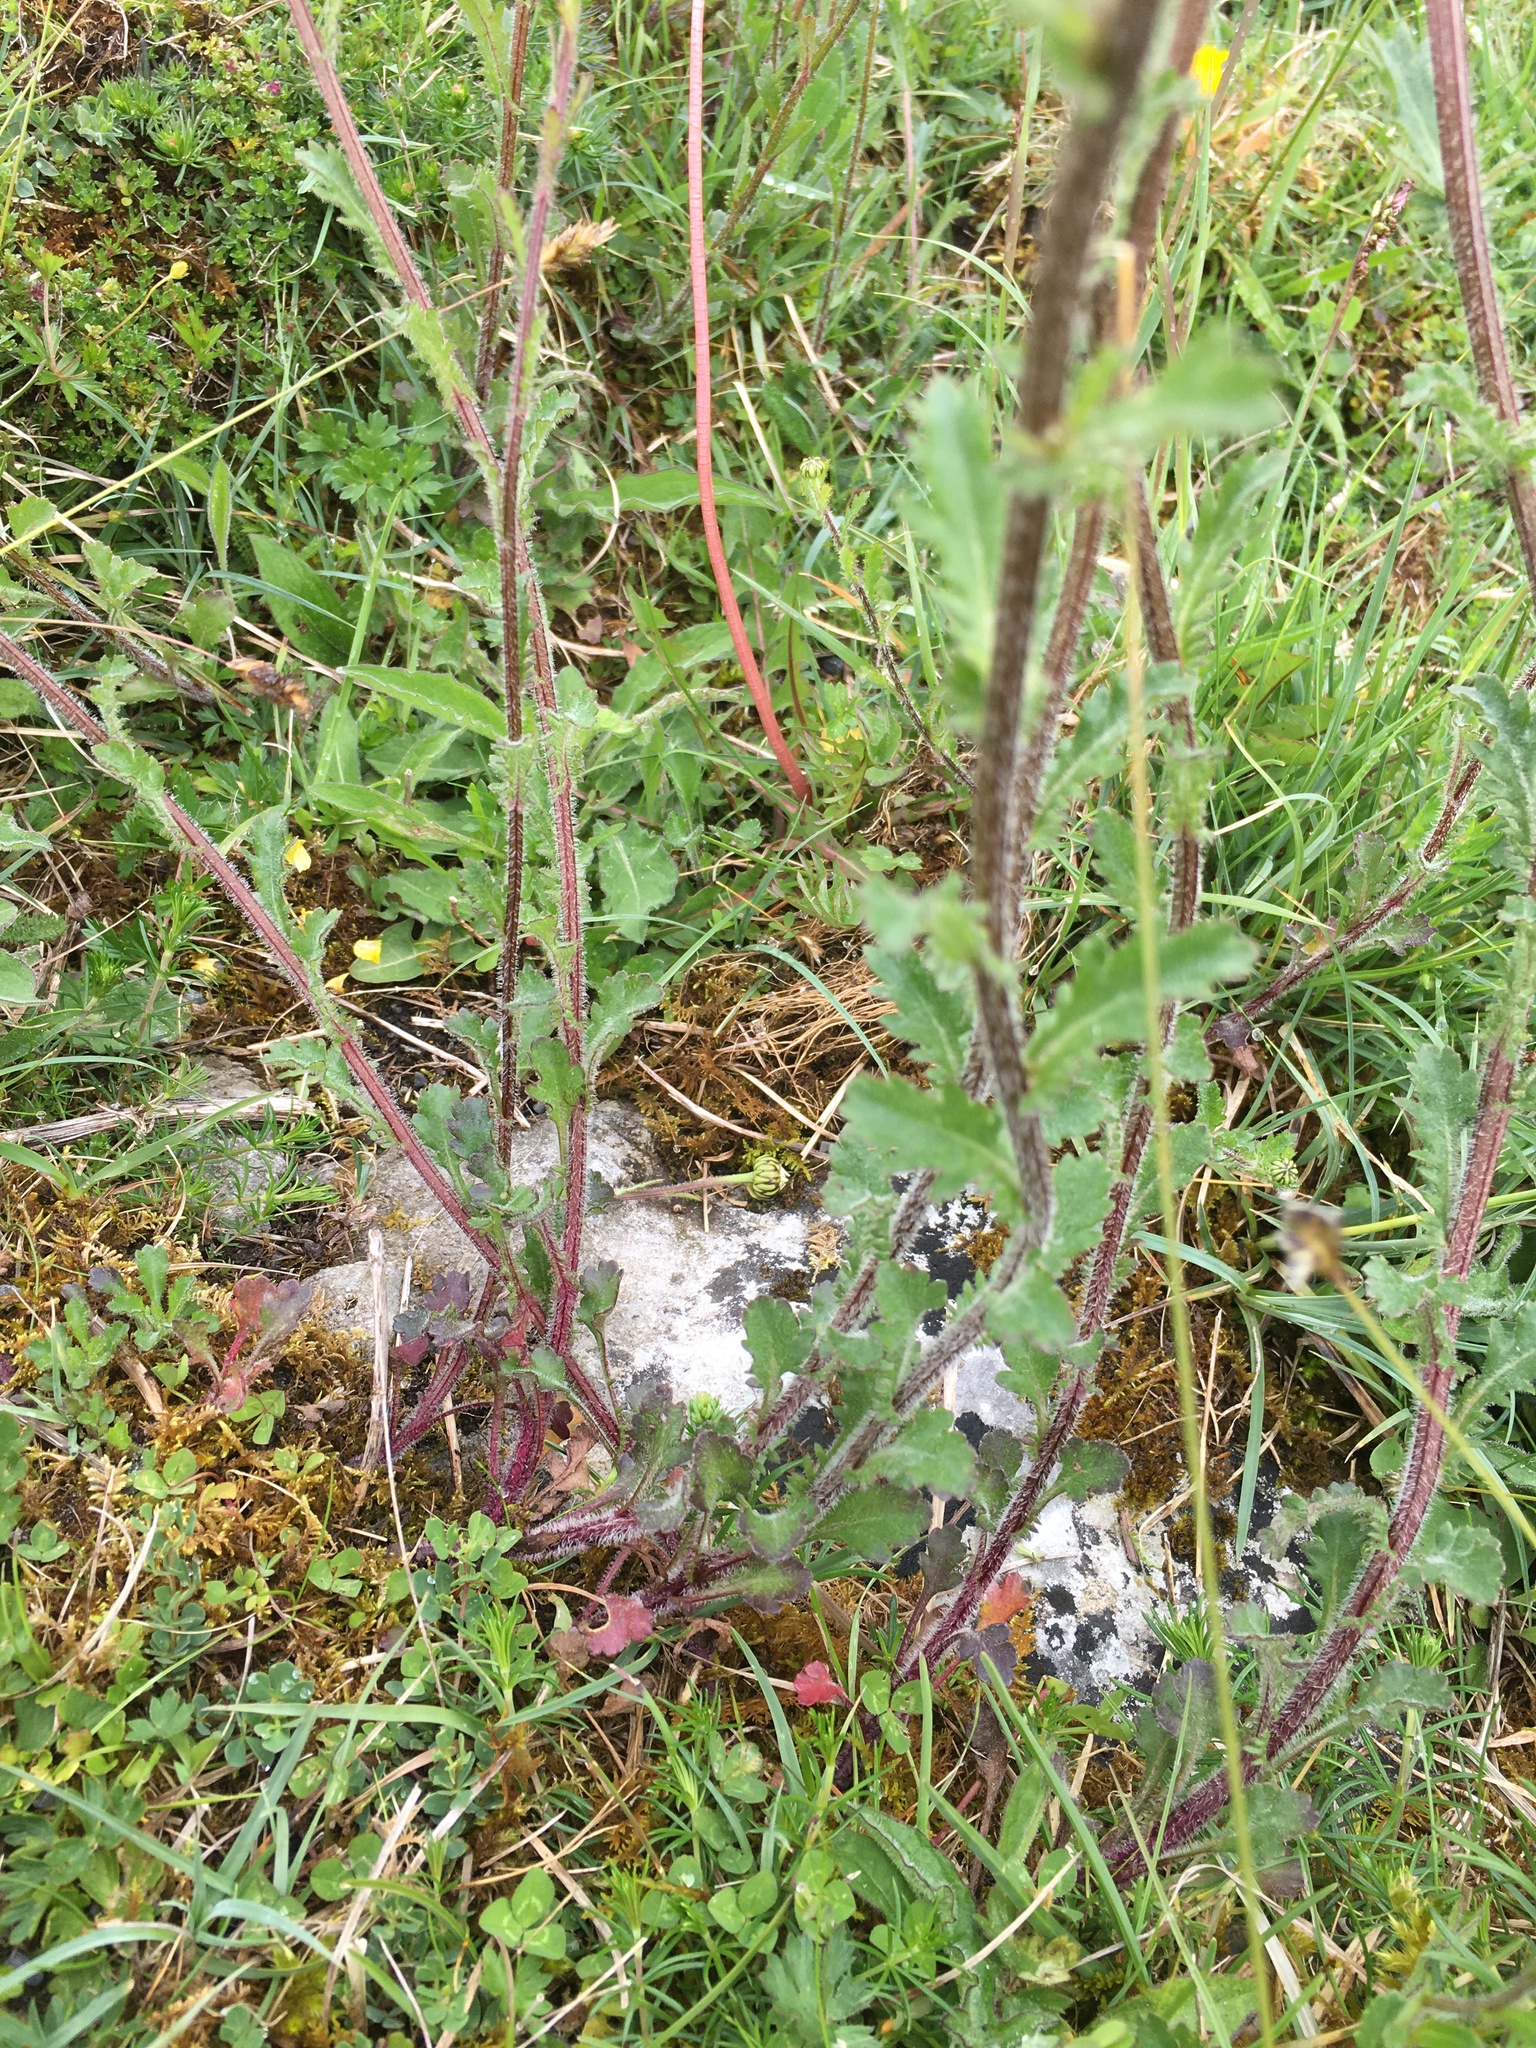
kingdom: Plantae
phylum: Tracheophyta
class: Magnoliopsida
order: Asterales
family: Asteraceae
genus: Leucanthemum
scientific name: Leucanthemum vulgare
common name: Oxeye daisy
